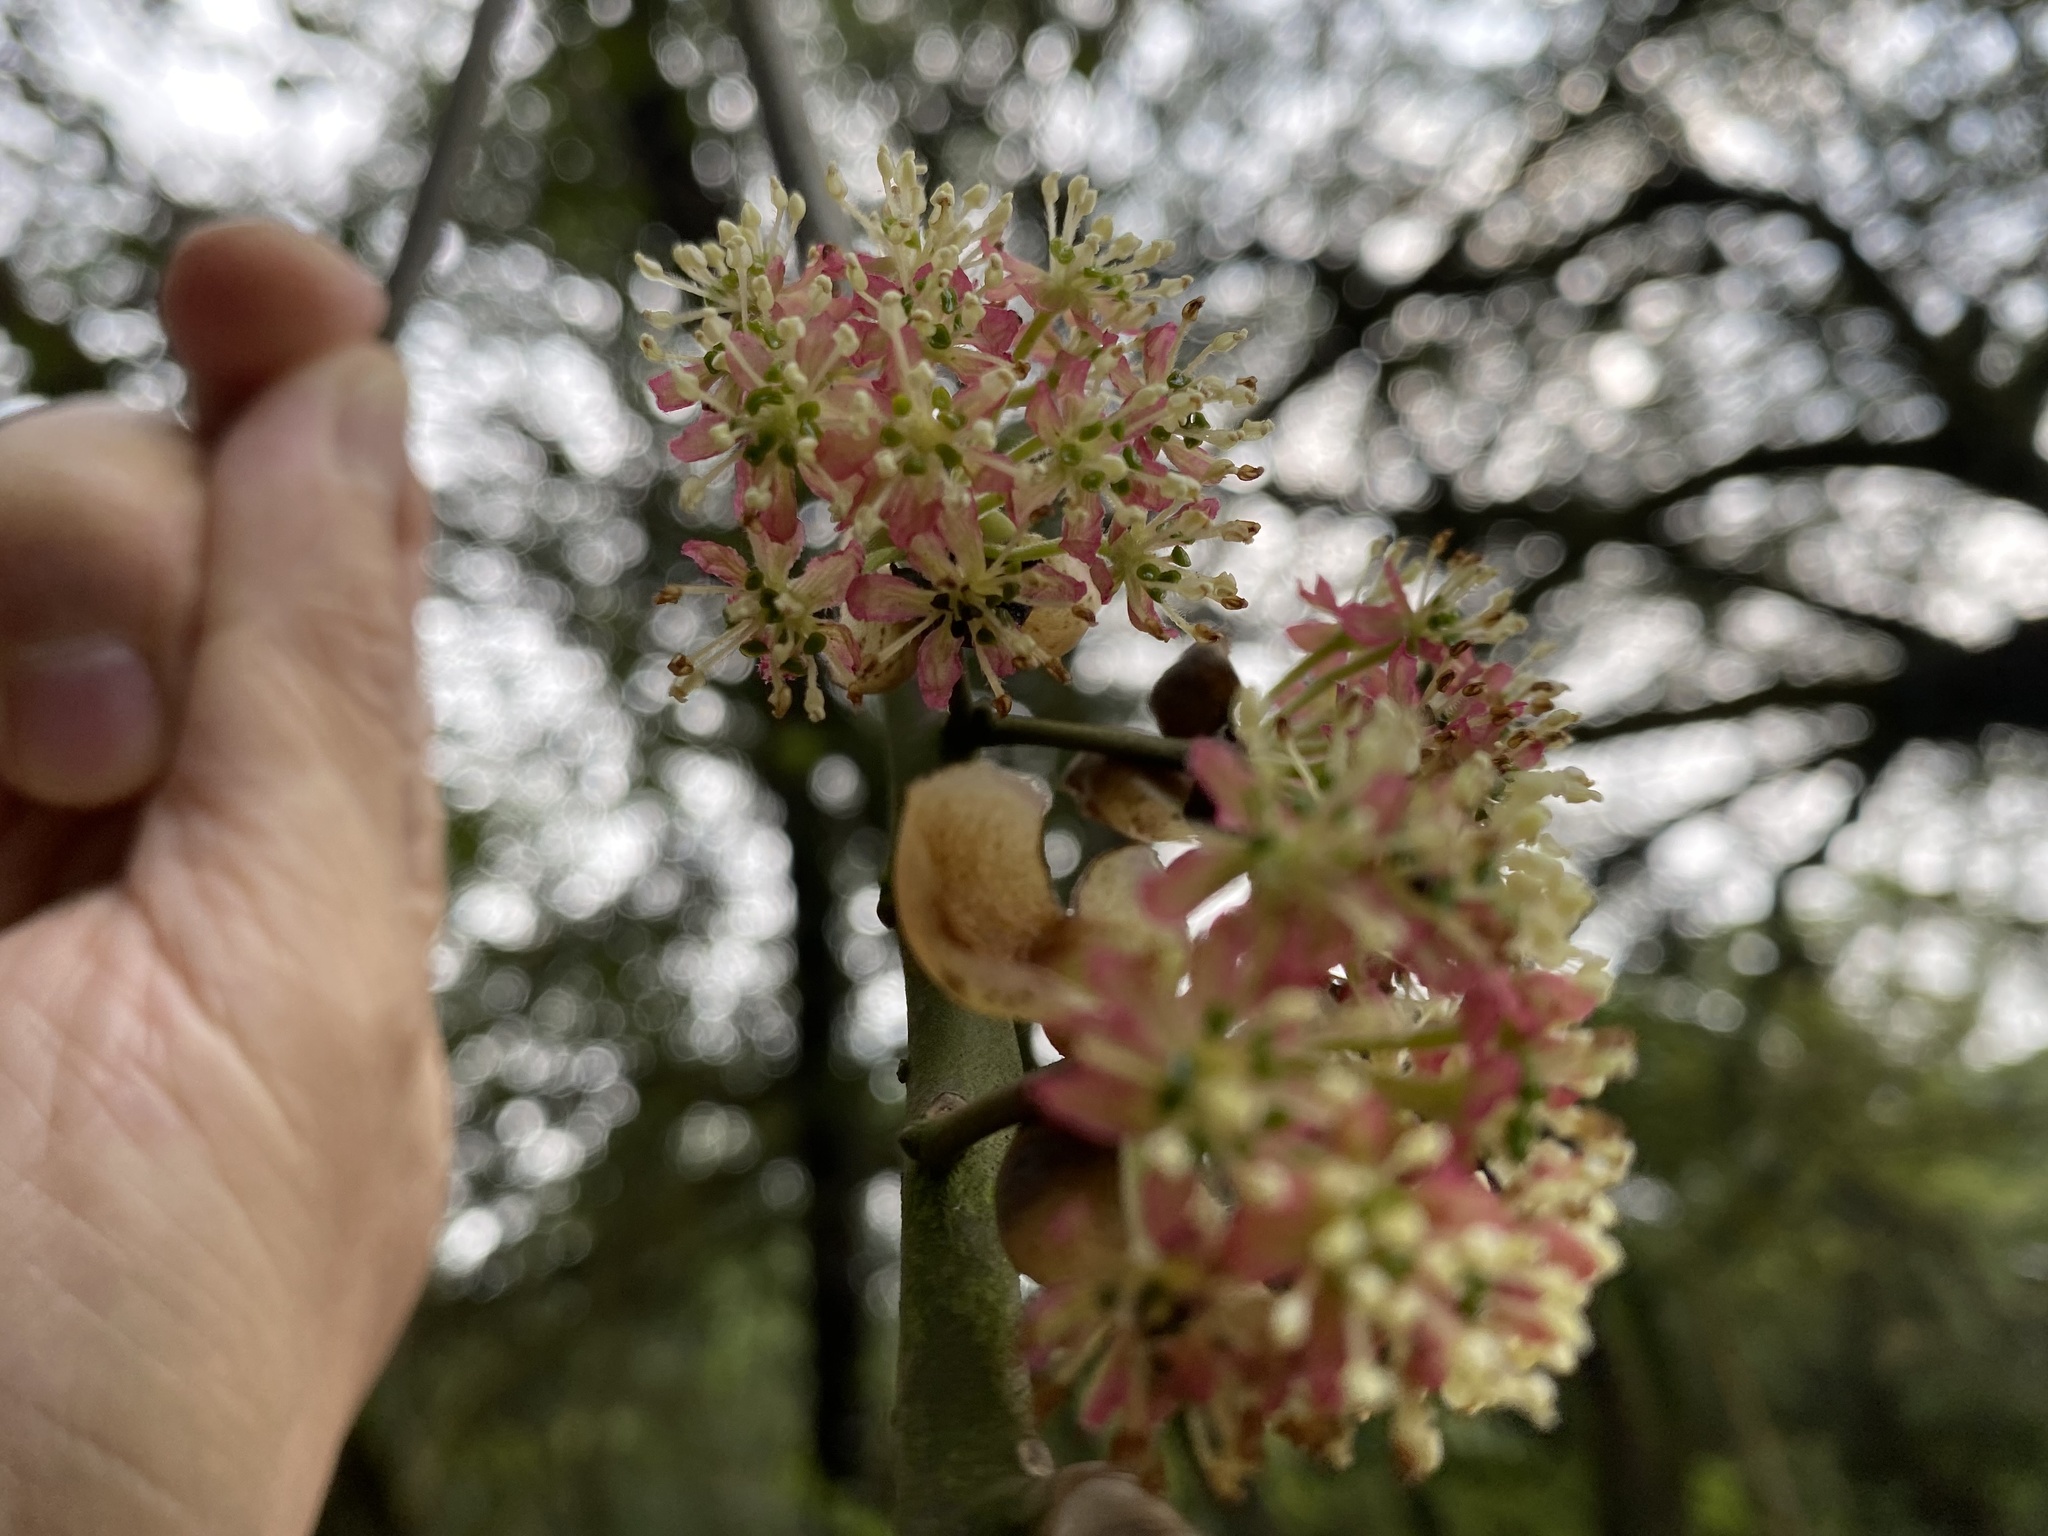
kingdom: Plantae
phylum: Tracheophyta
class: Magnoliopsida
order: Laurales
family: Lauraceae
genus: Lindera
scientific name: Lindera megaphylla
